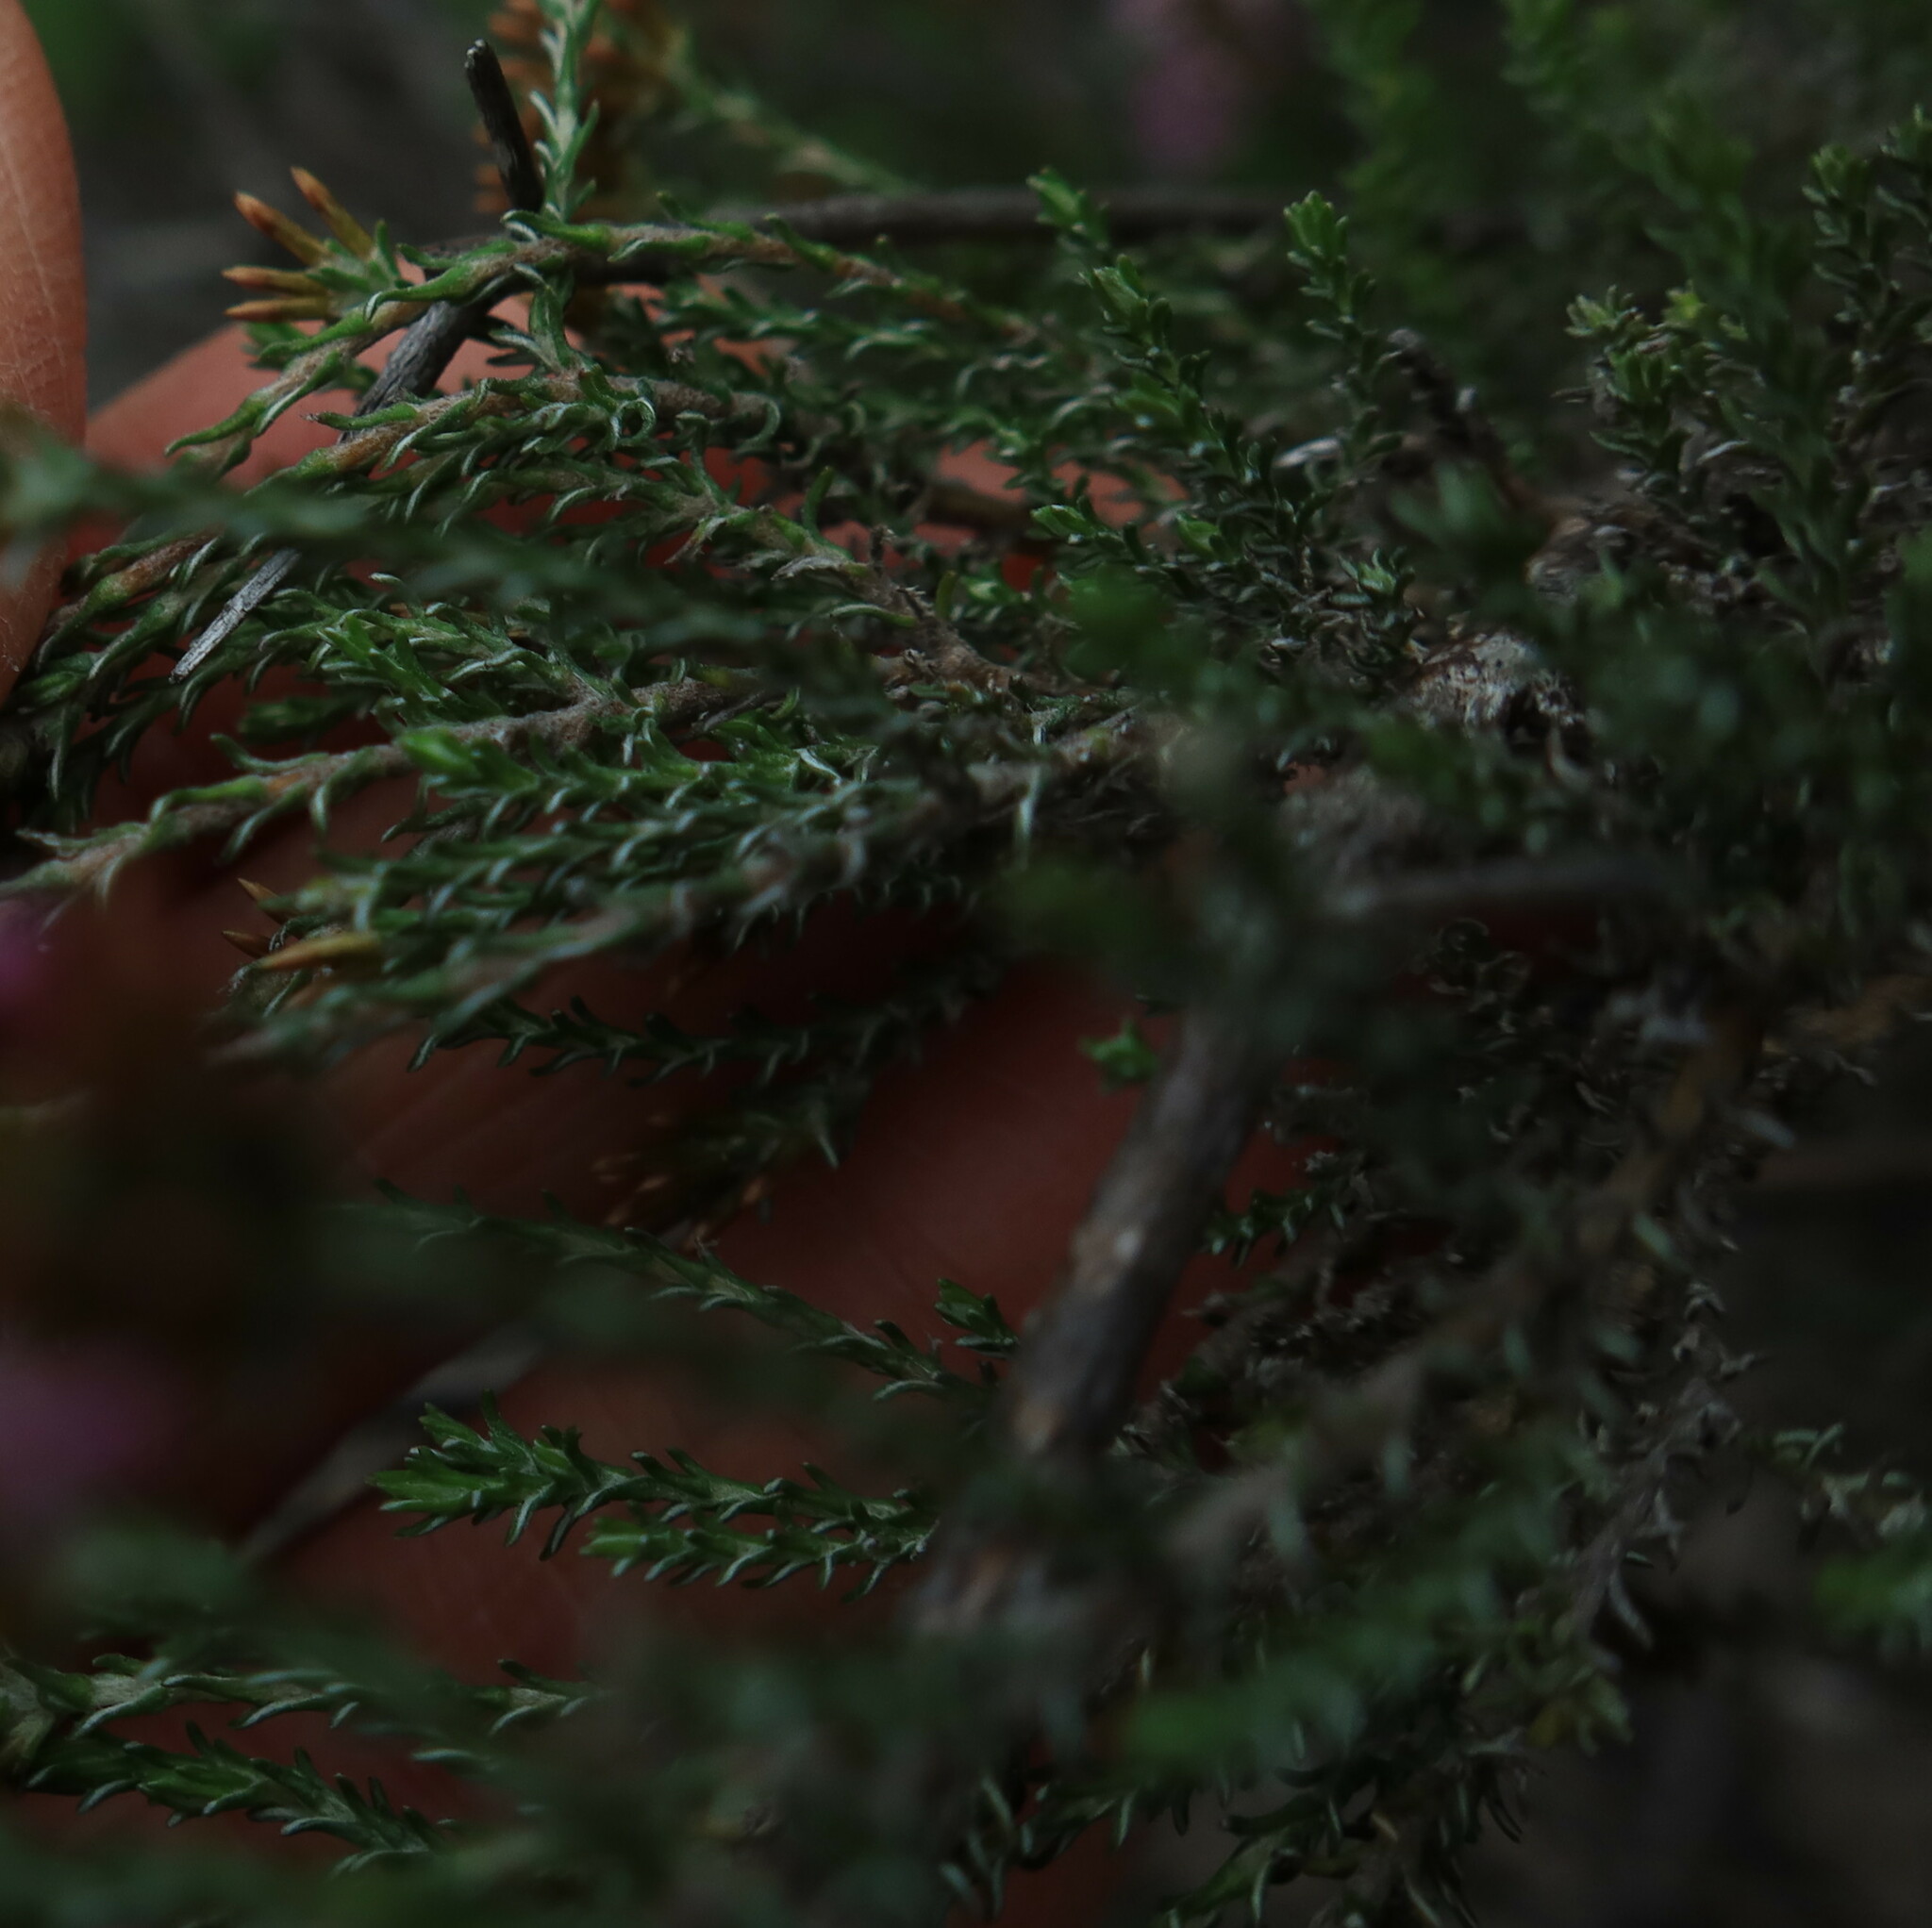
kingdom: Plantae
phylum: Tracheophyta
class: Magnoliopsida
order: Asterales
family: Asteraceae
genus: Stoebe
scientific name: Stoebe fusca
